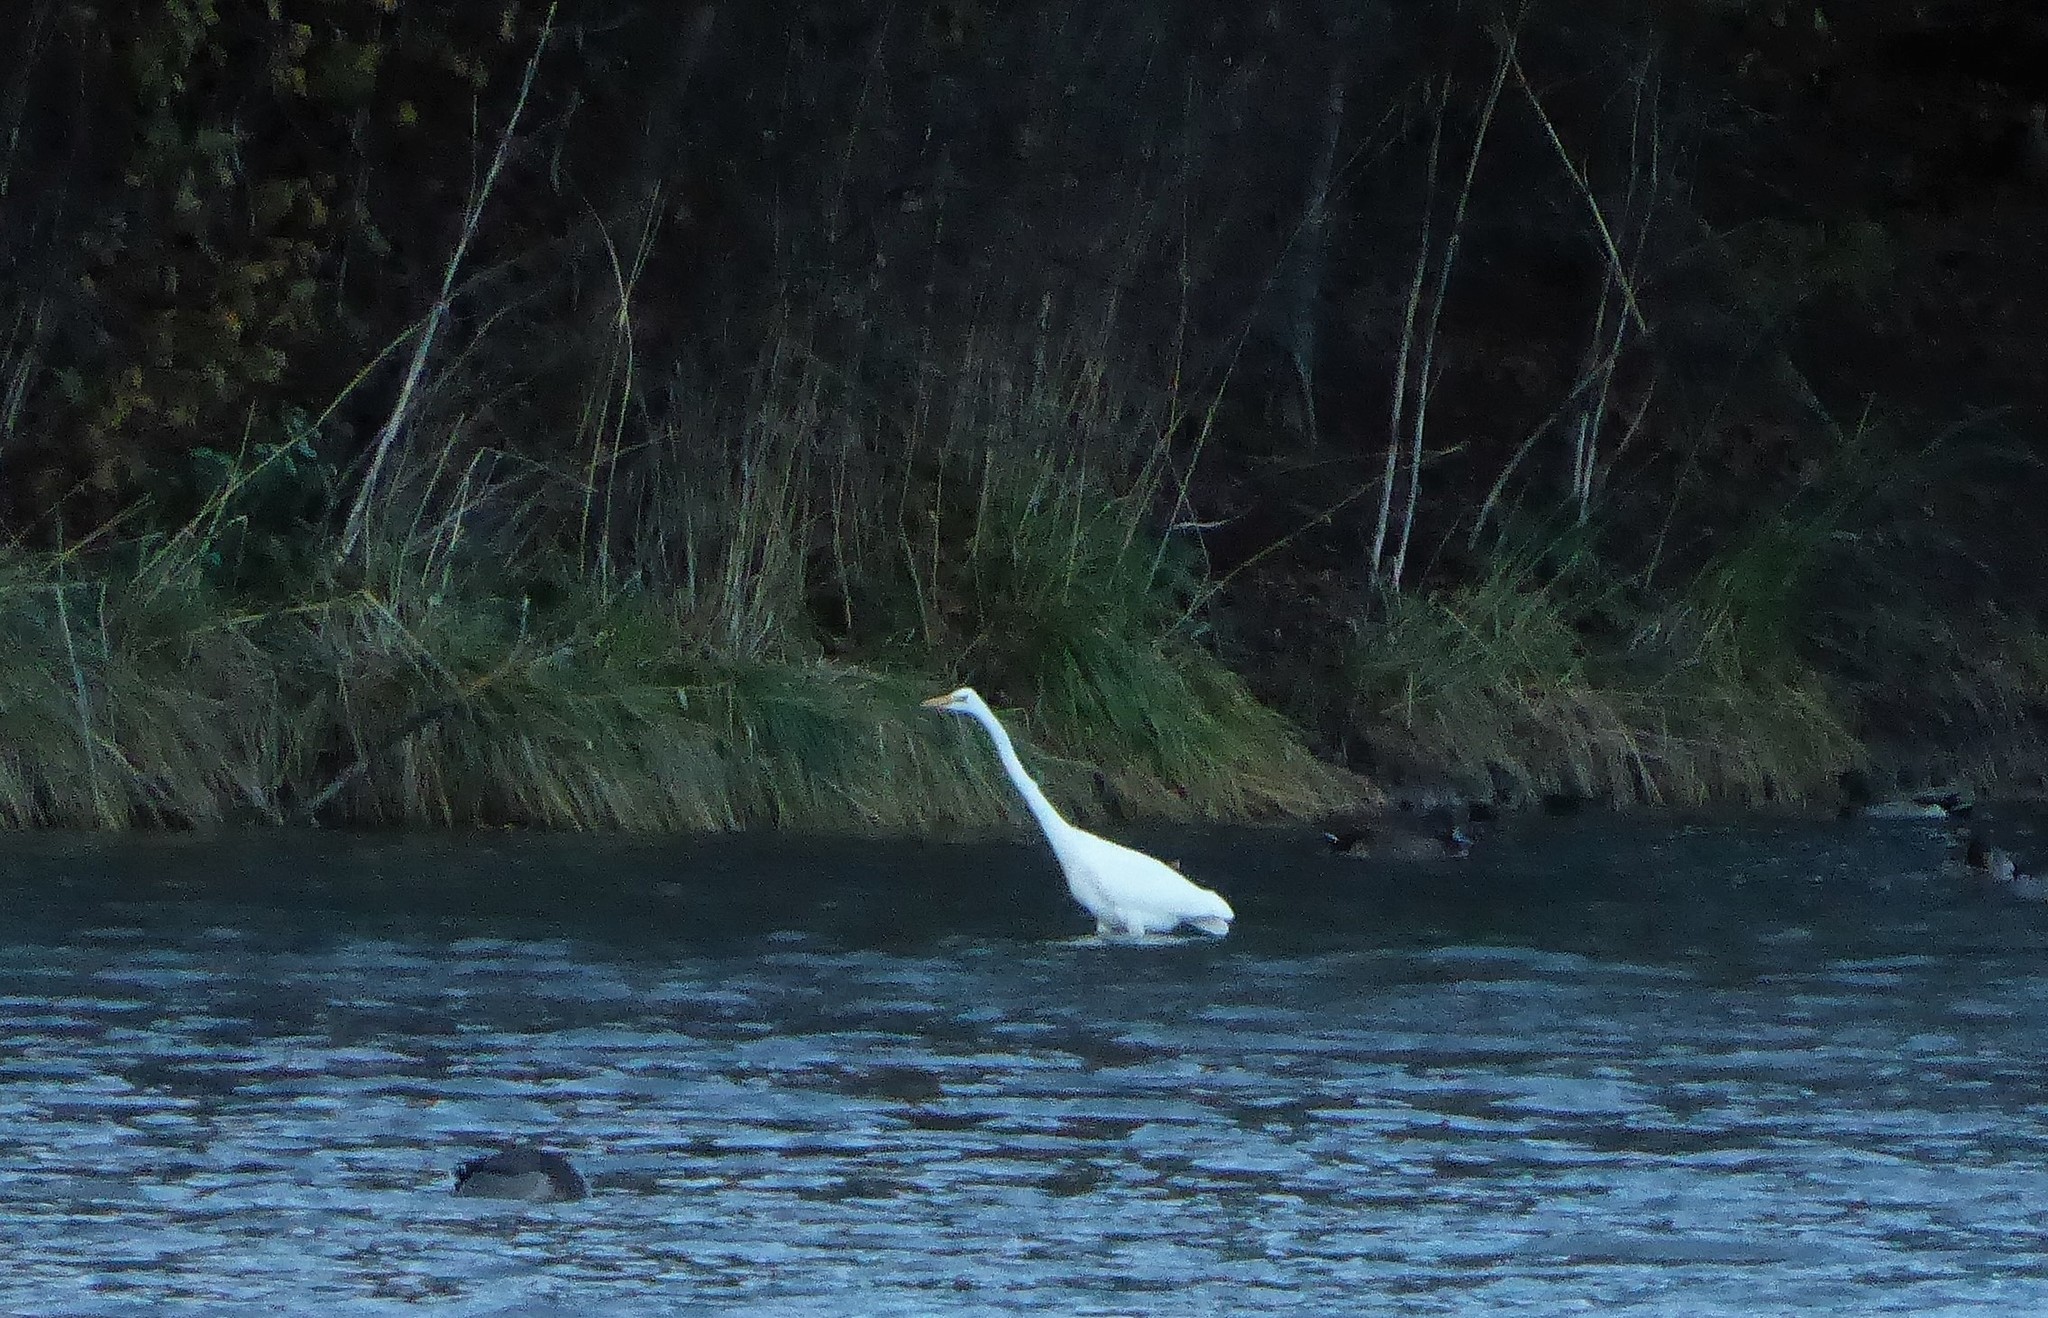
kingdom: Animalia
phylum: Chordata
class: Aves
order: Pelecaniformes
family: Ardeidae
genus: Ardea
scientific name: Ardea modesta
